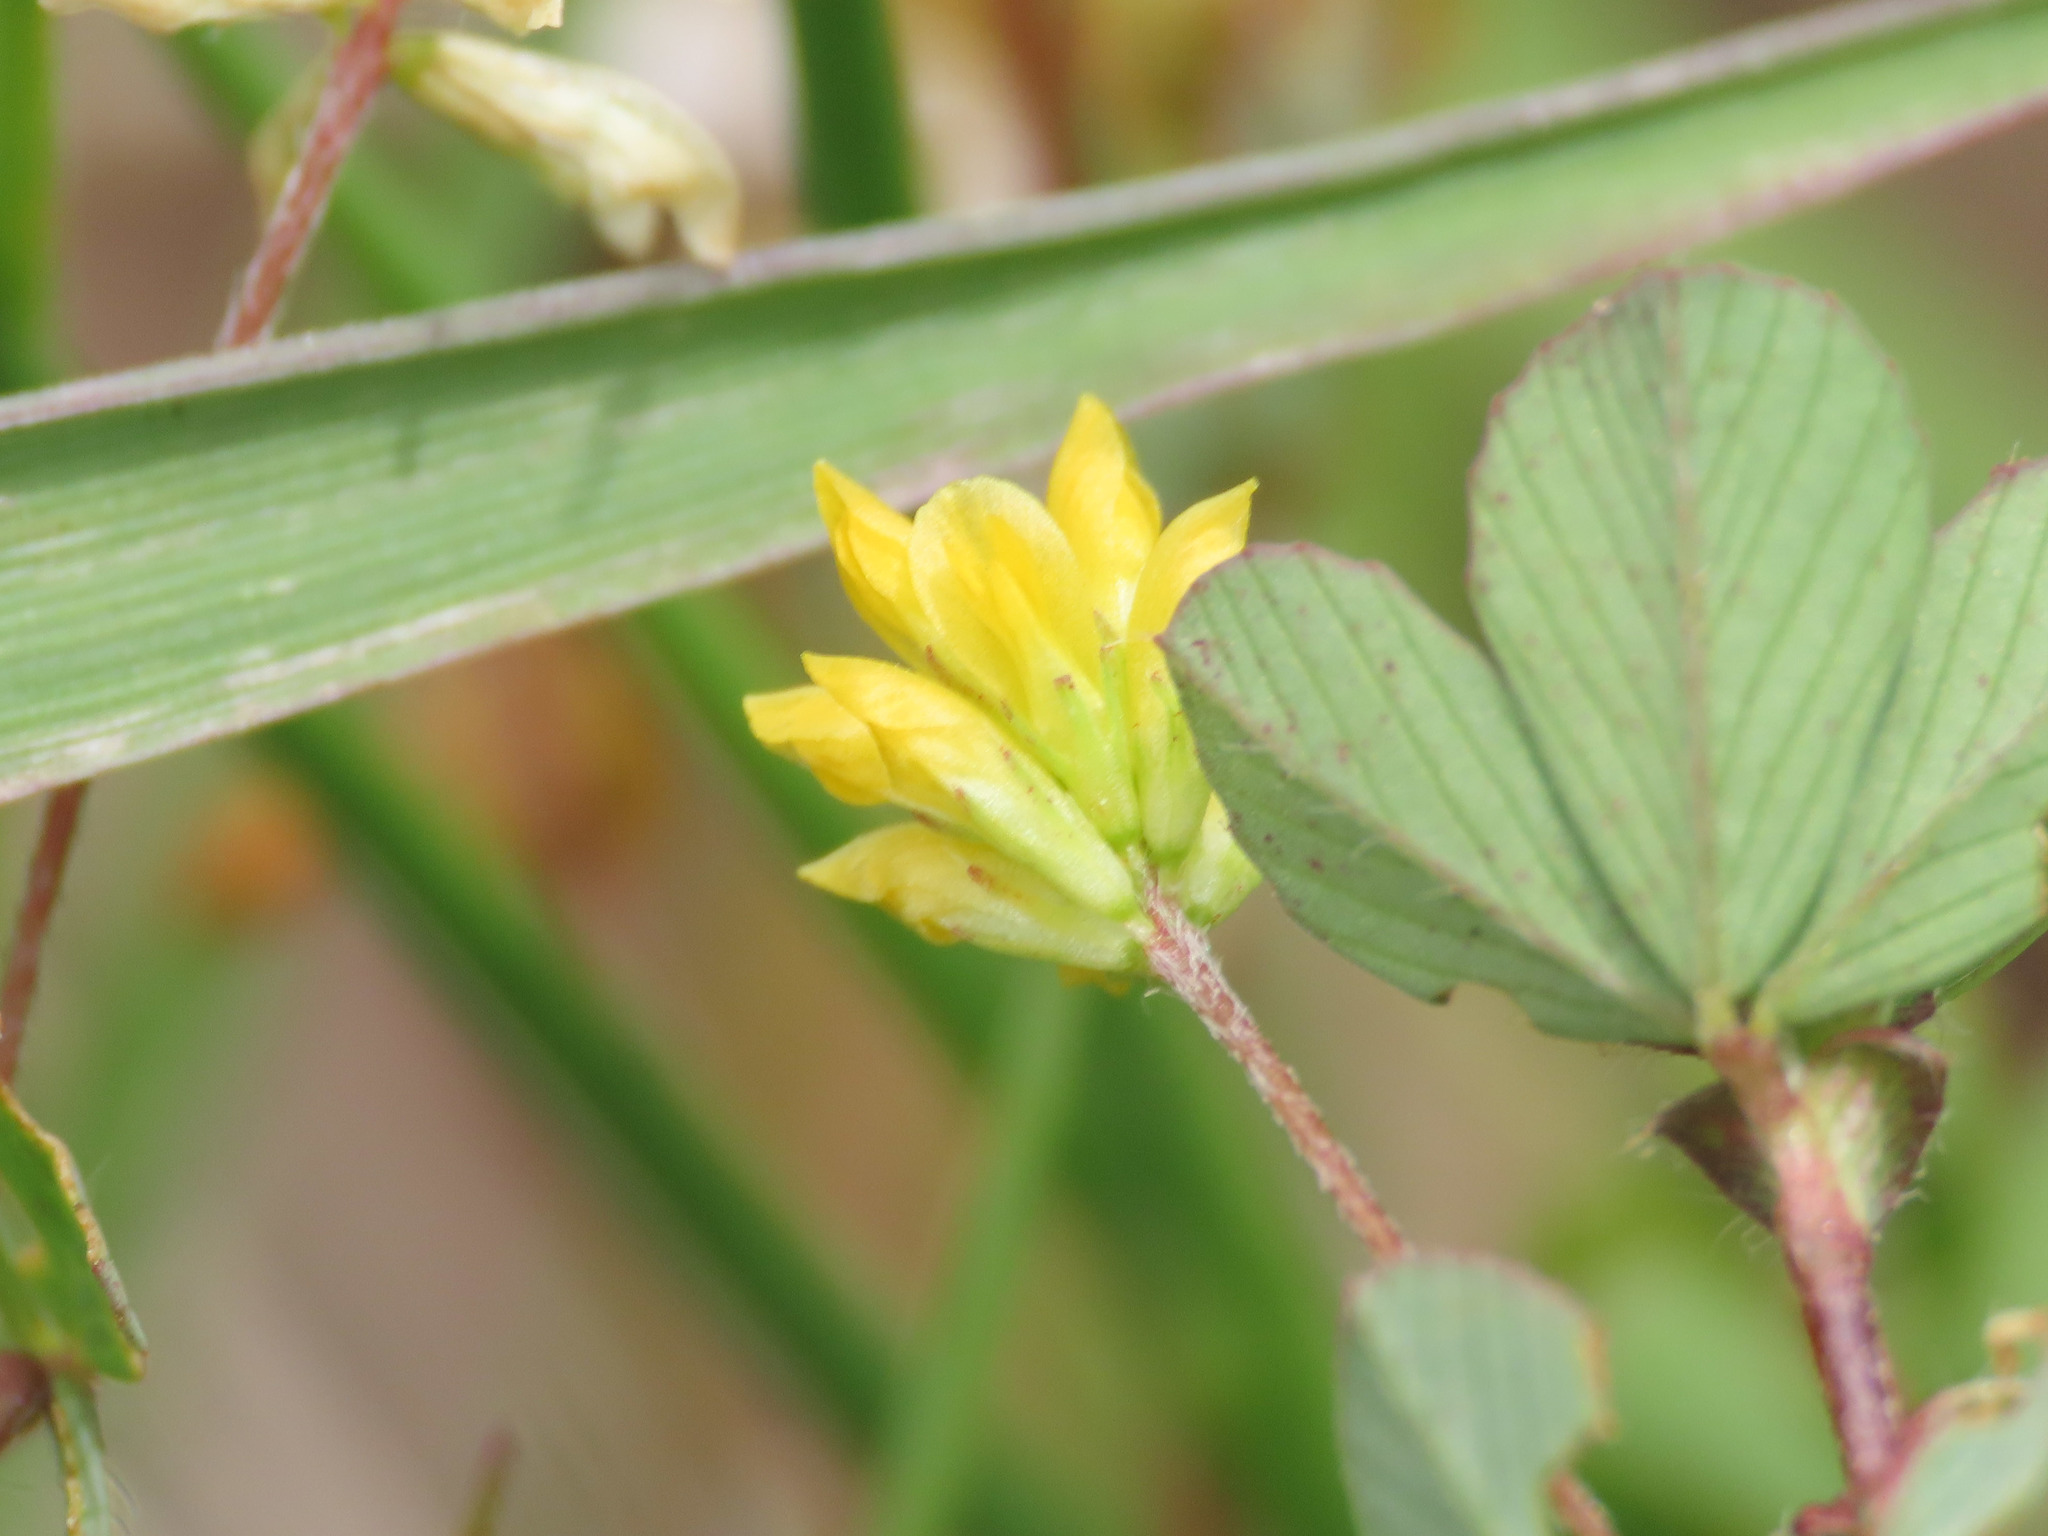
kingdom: Plantae
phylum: Tracheophyta
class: Magnoliopsida
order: Fabales
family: Fabaceae
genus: Trifolium
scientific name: Trifolium dubium
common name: Suckling clover
